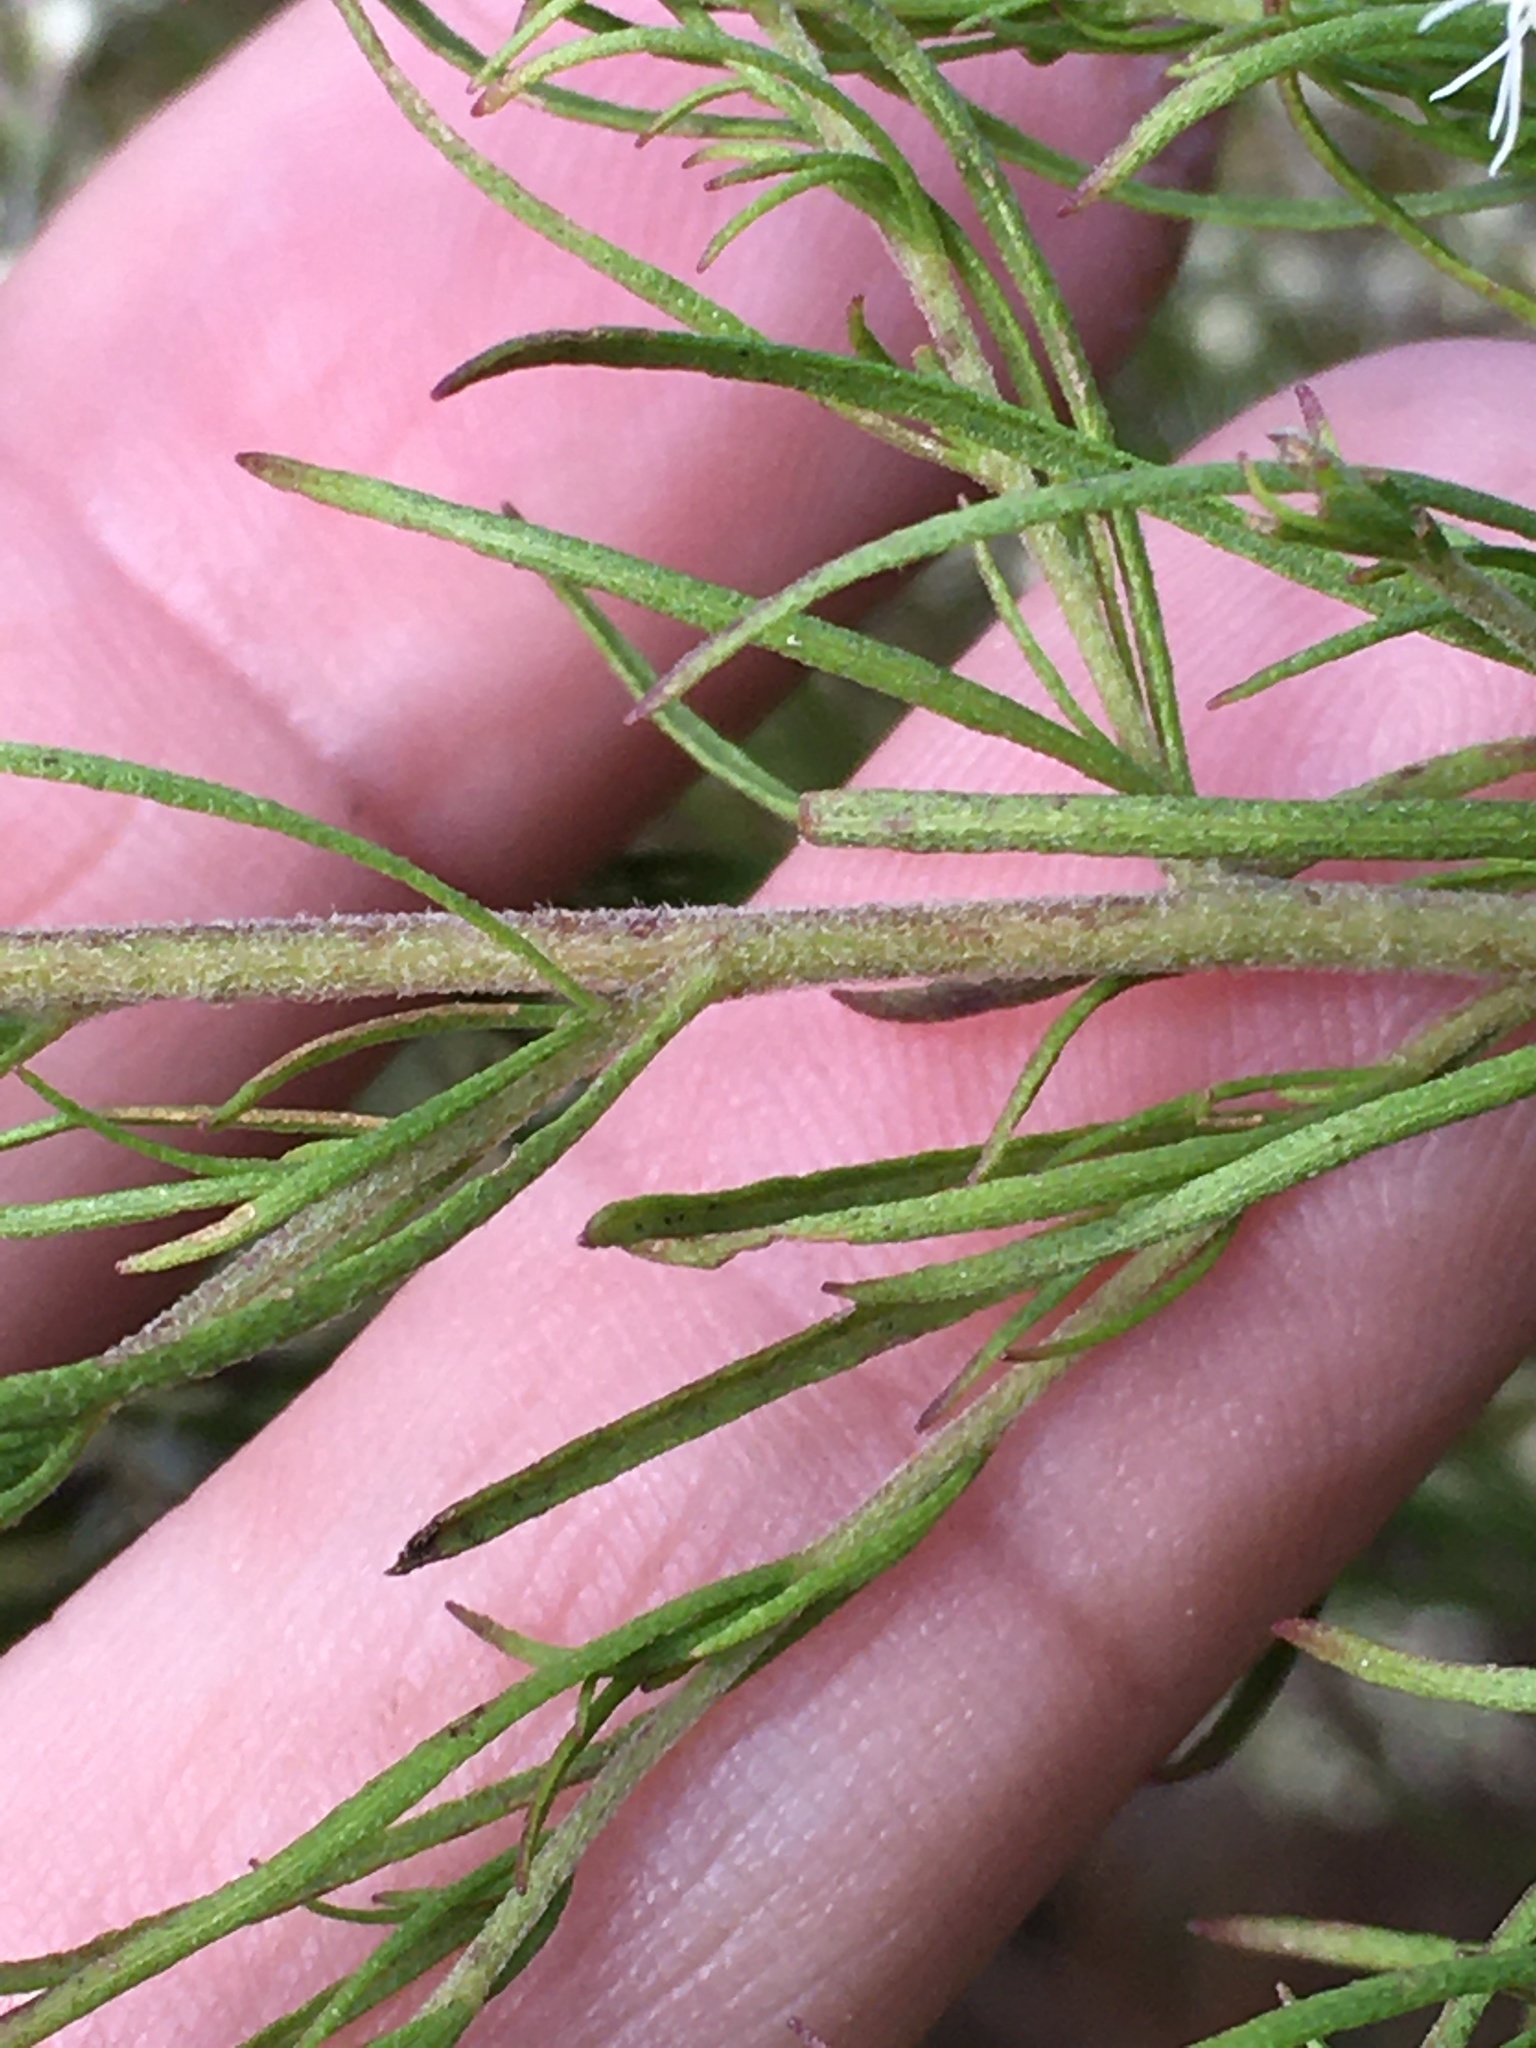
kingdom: Plantae
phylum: Tracheophyta
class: Magnoliopsida
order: Asterales
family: Asteraceae
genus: Eupatorium
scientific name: Eupatorium compositifolium
